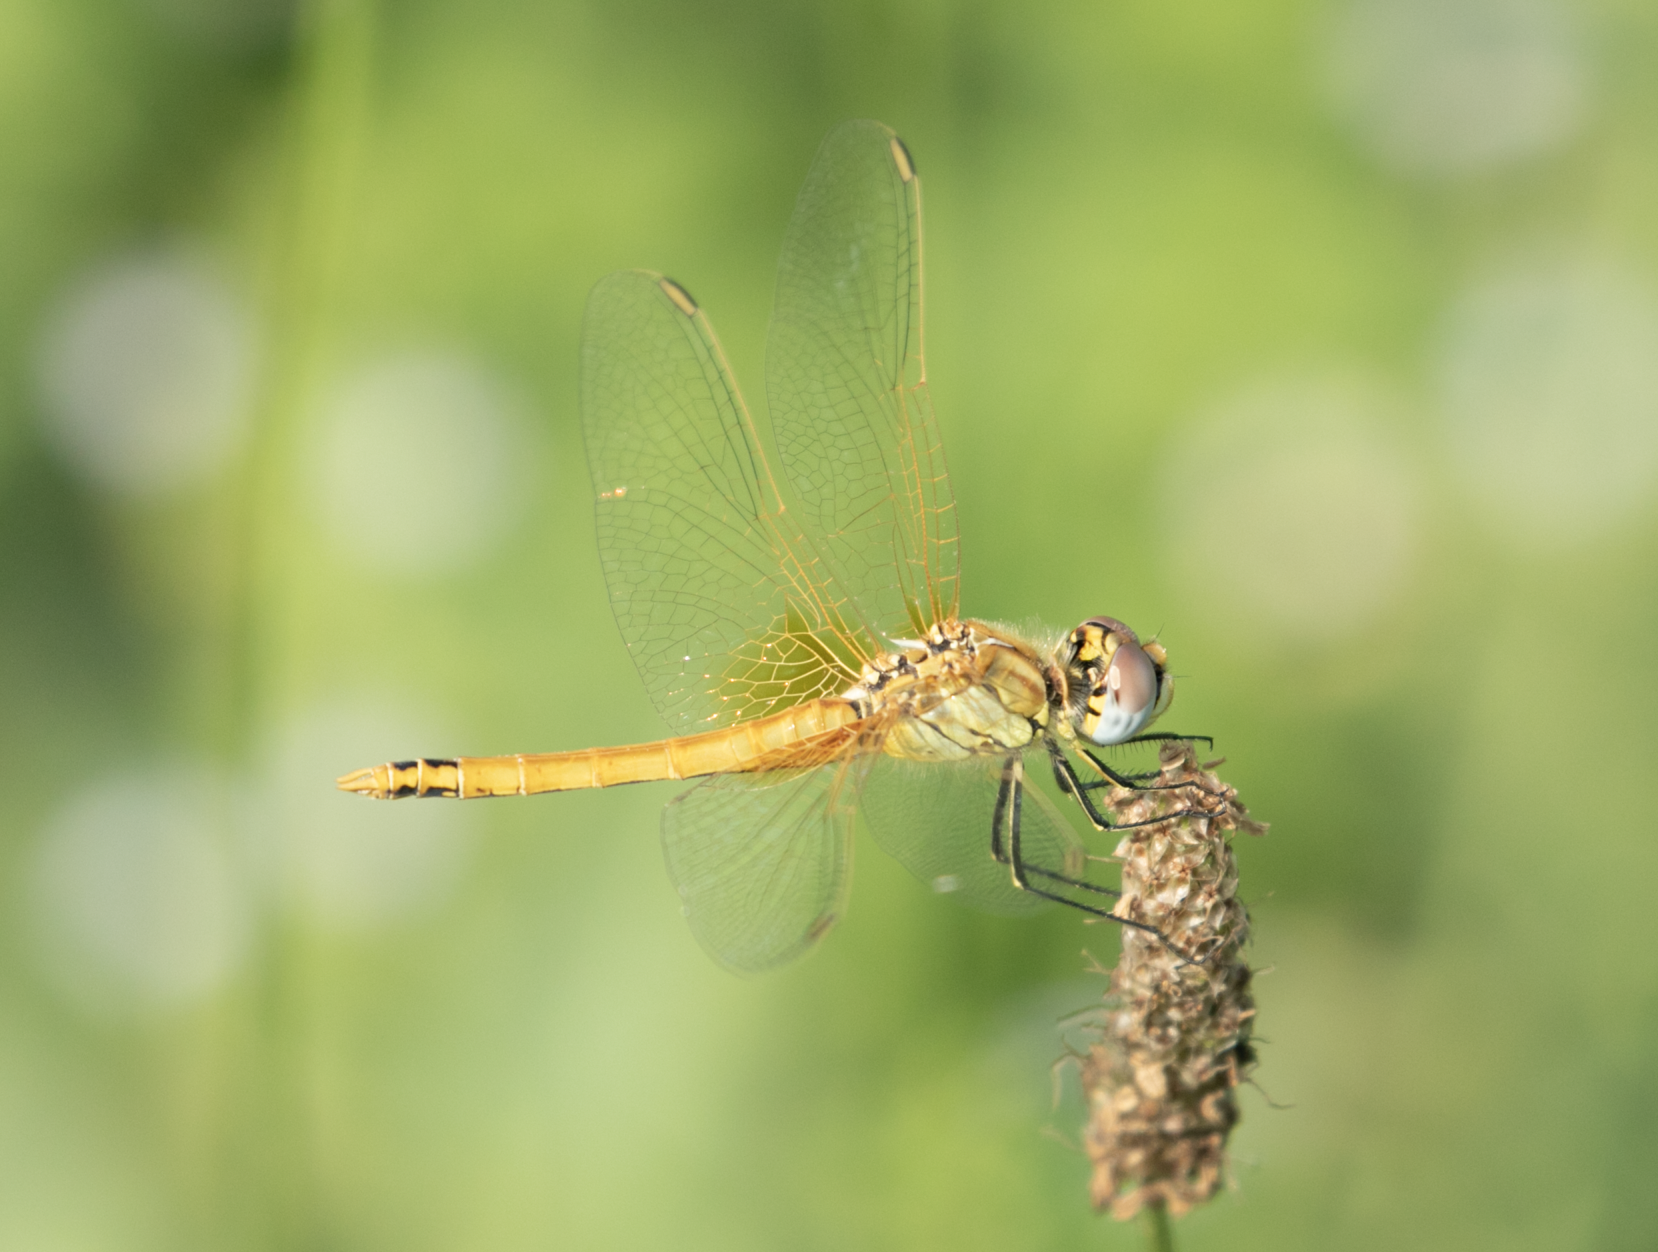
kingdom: Animalia
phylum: Arthropoda
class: Insecta
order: Odonata
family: Libellulidae
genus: Sympetrum
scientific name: Sympetrum fonscolombii
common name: Red-veined darter
